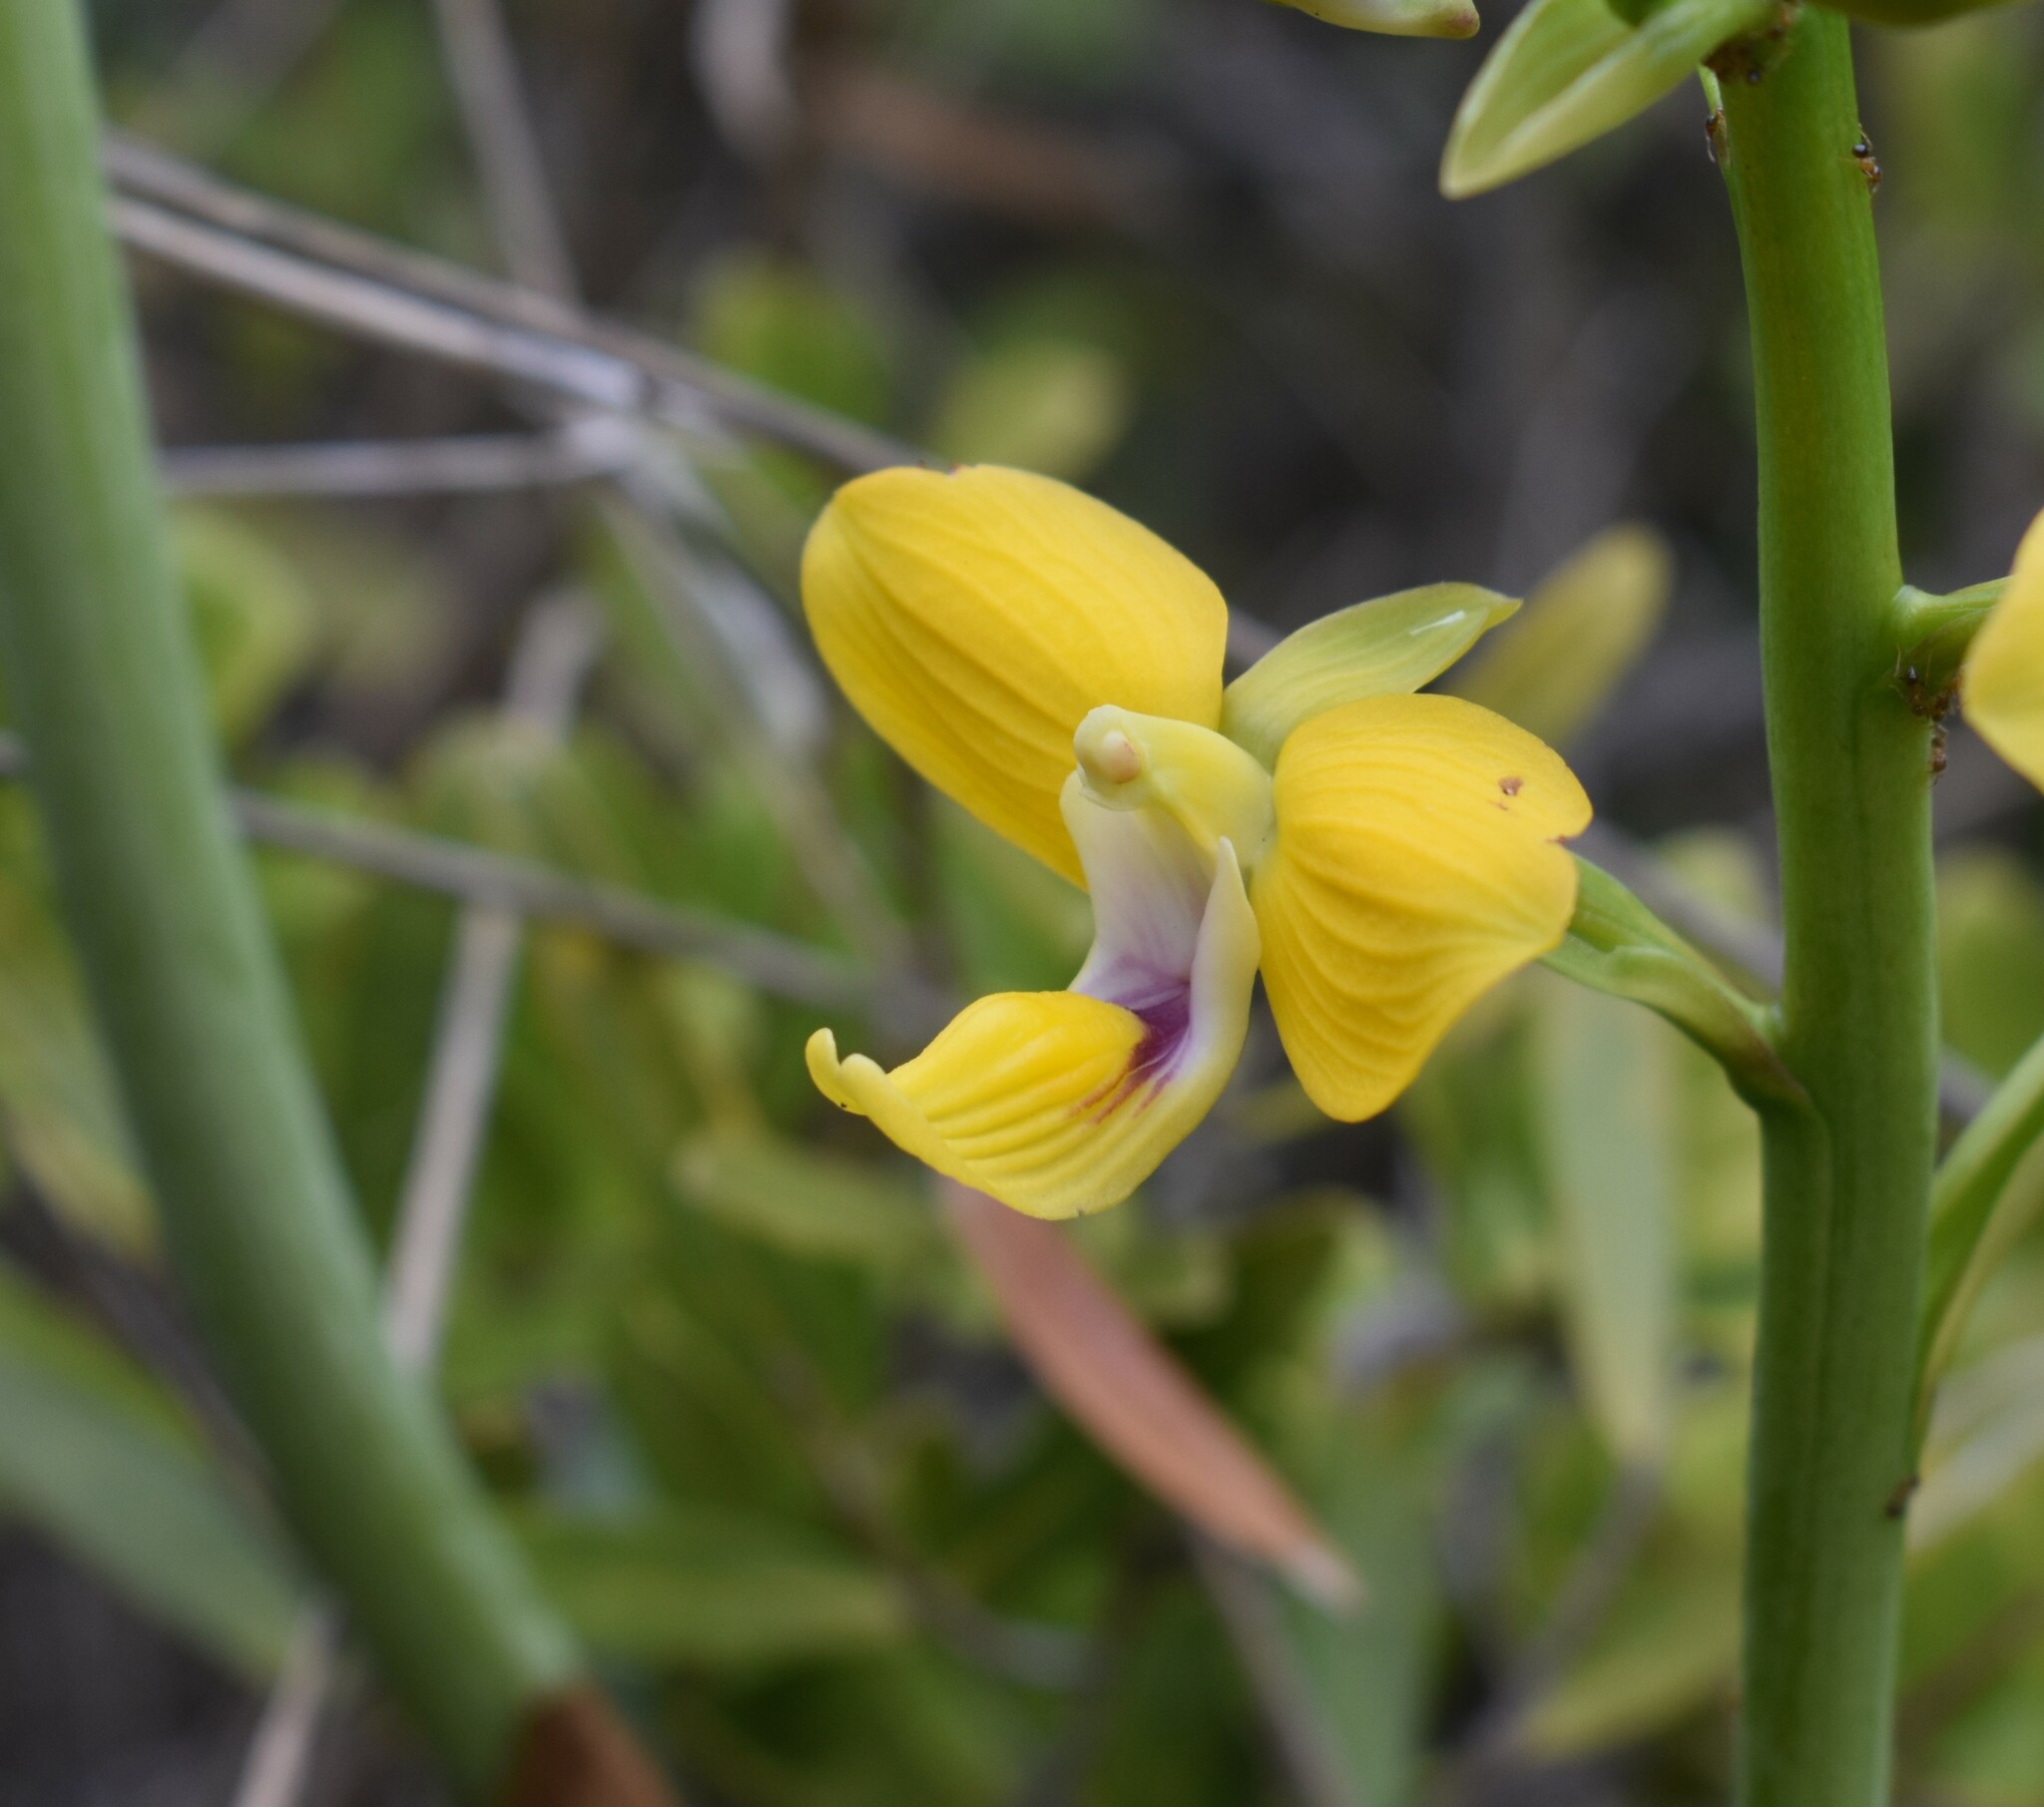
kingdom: Plantae
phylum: Tracheophyta
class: Liliopsida
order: Asparagales
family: Orchidaceae
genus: Eulophia
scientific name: Eulophia speciosa
